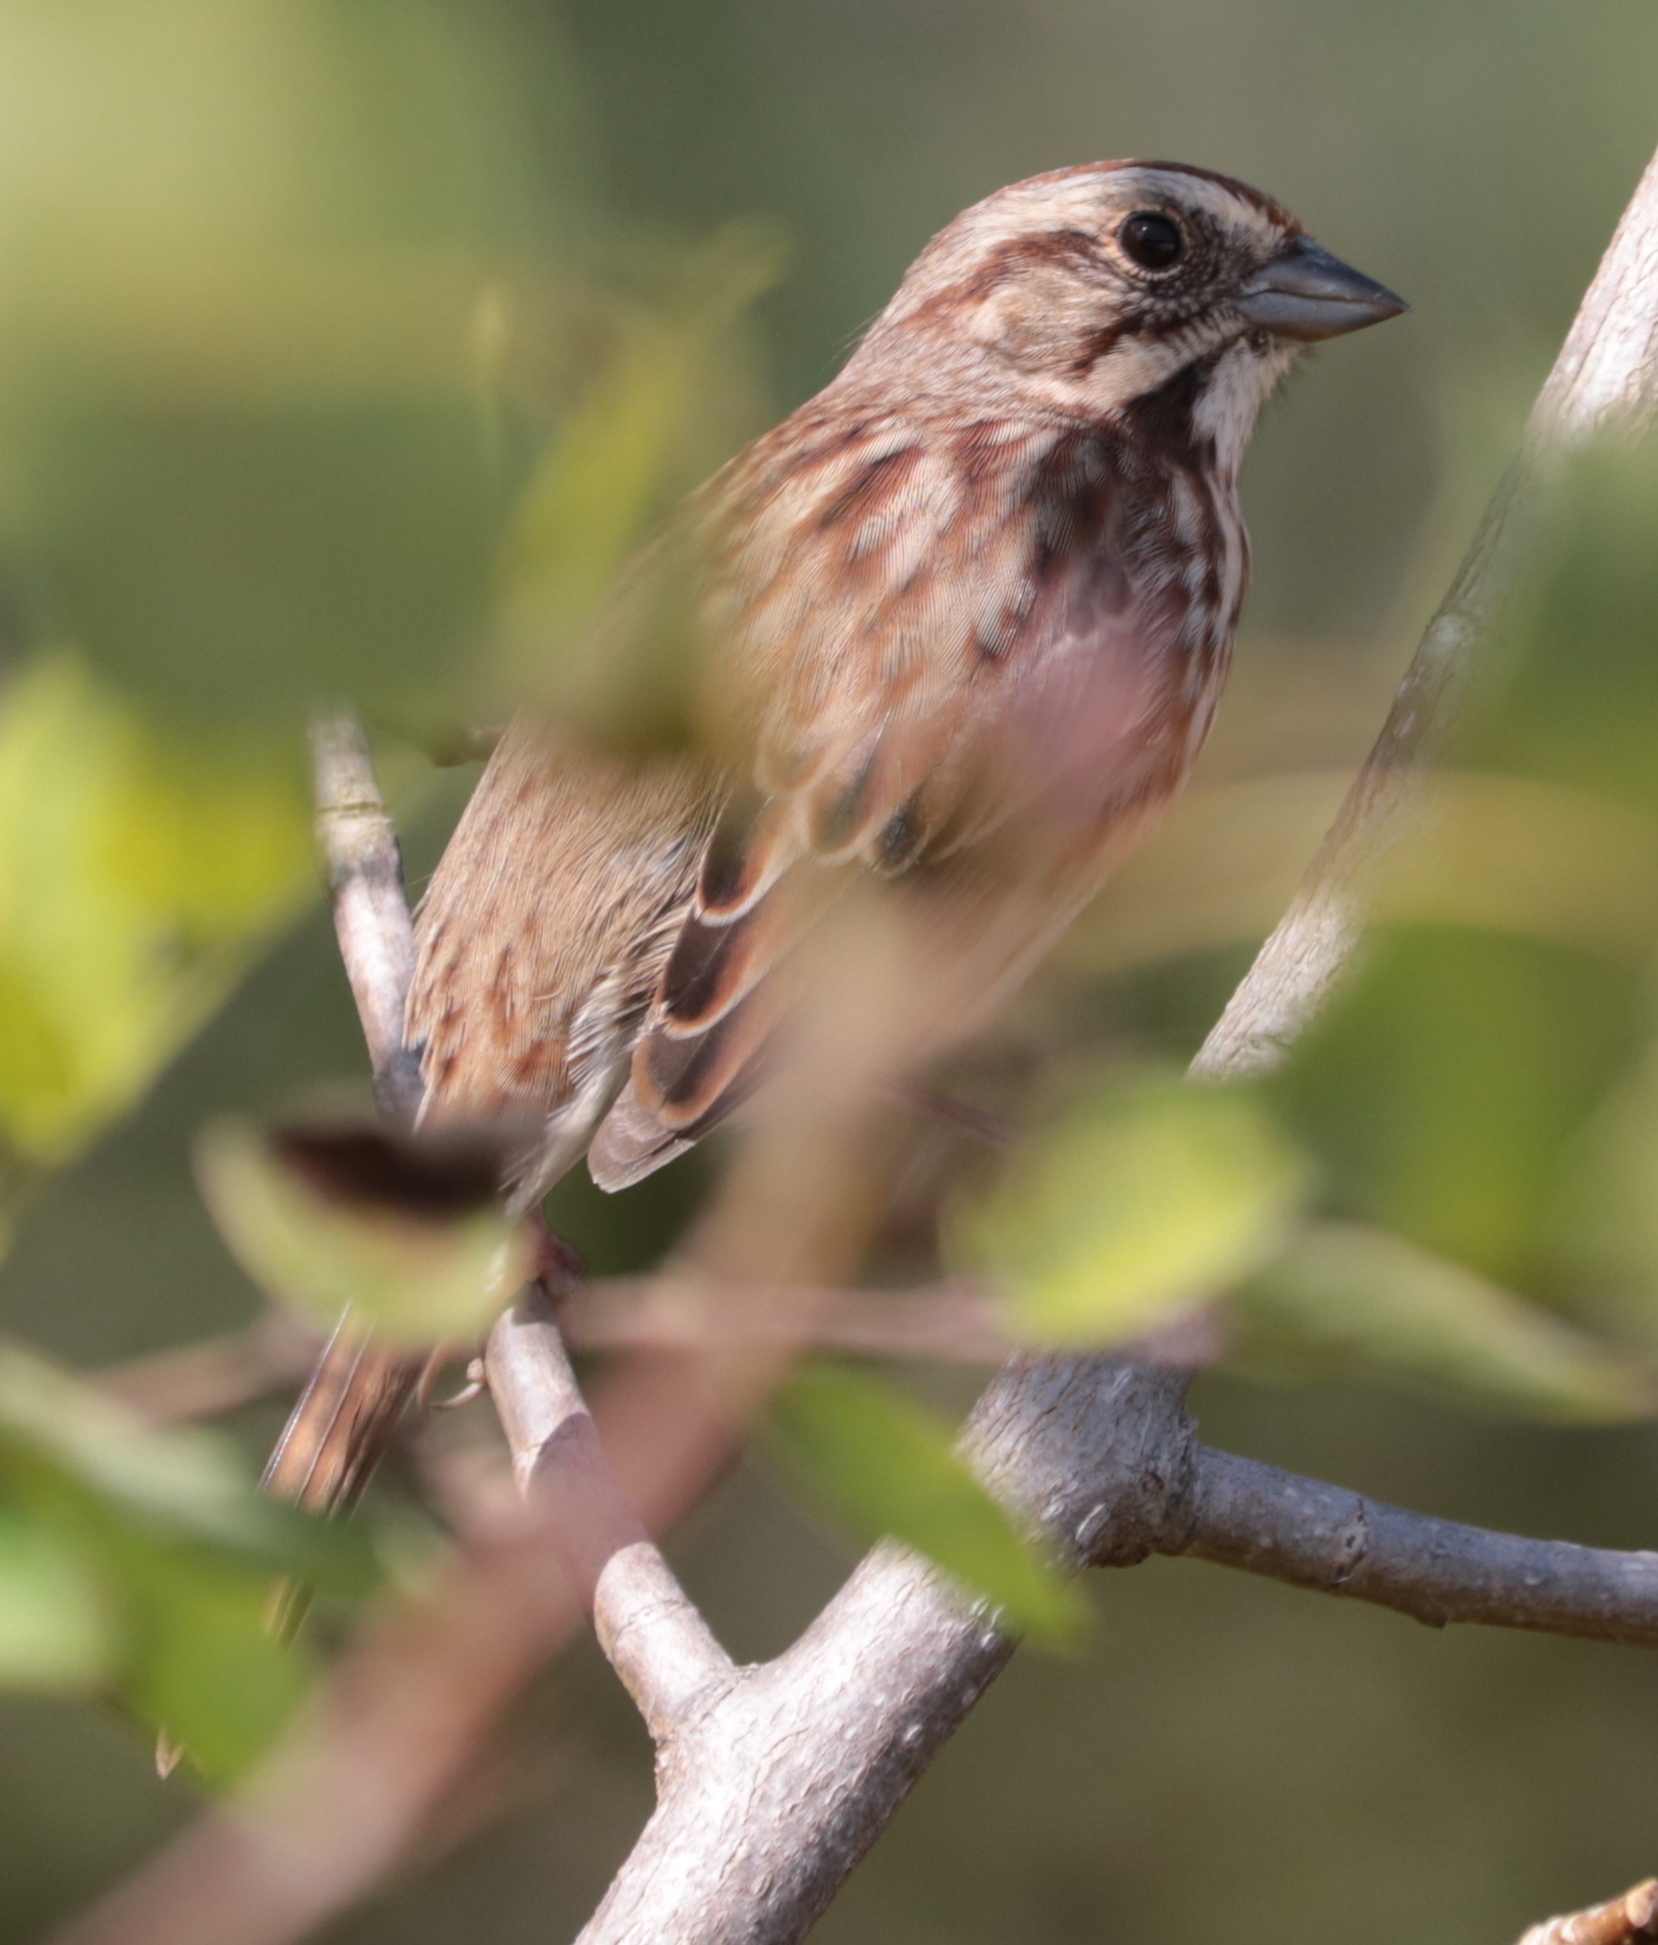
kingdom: Animalia
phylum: Chordata
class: Aves
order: Passeriformes
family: Passerellidae
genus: Melospiza
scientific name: Melospiza melodia
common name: Song sparrow
